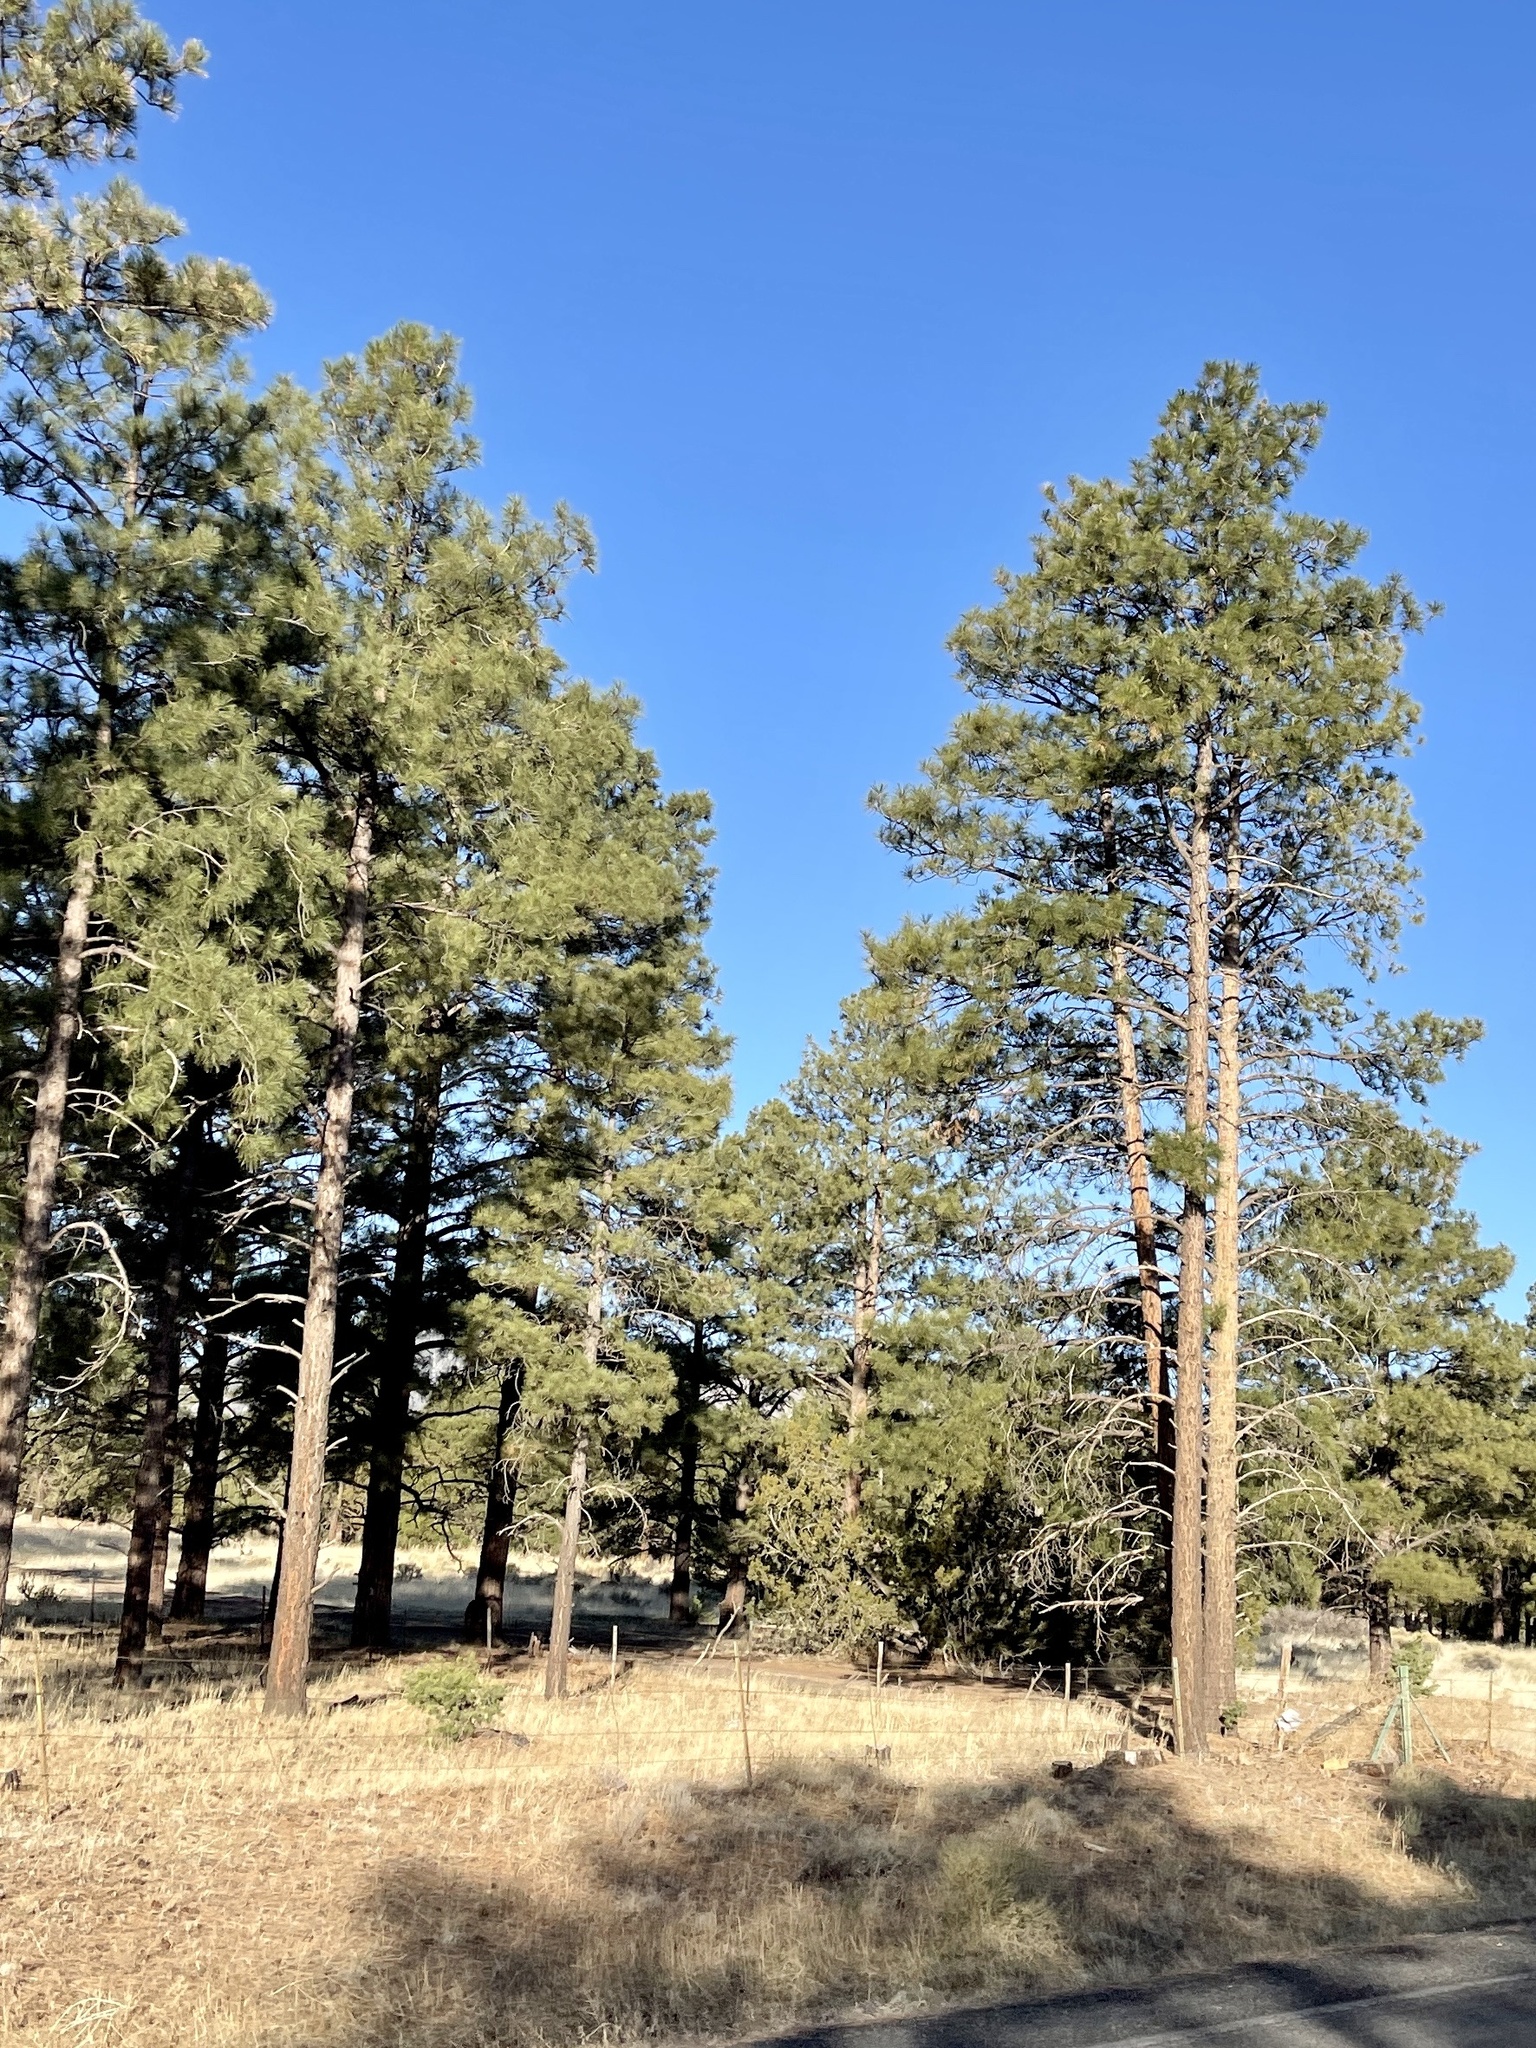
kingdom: Plantae
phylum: Tracheophyta
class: Pinopsida
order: Pinales
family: Pinaceae
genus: Pinus
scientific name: Pinus ponderosa
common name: Western yellow-pine
